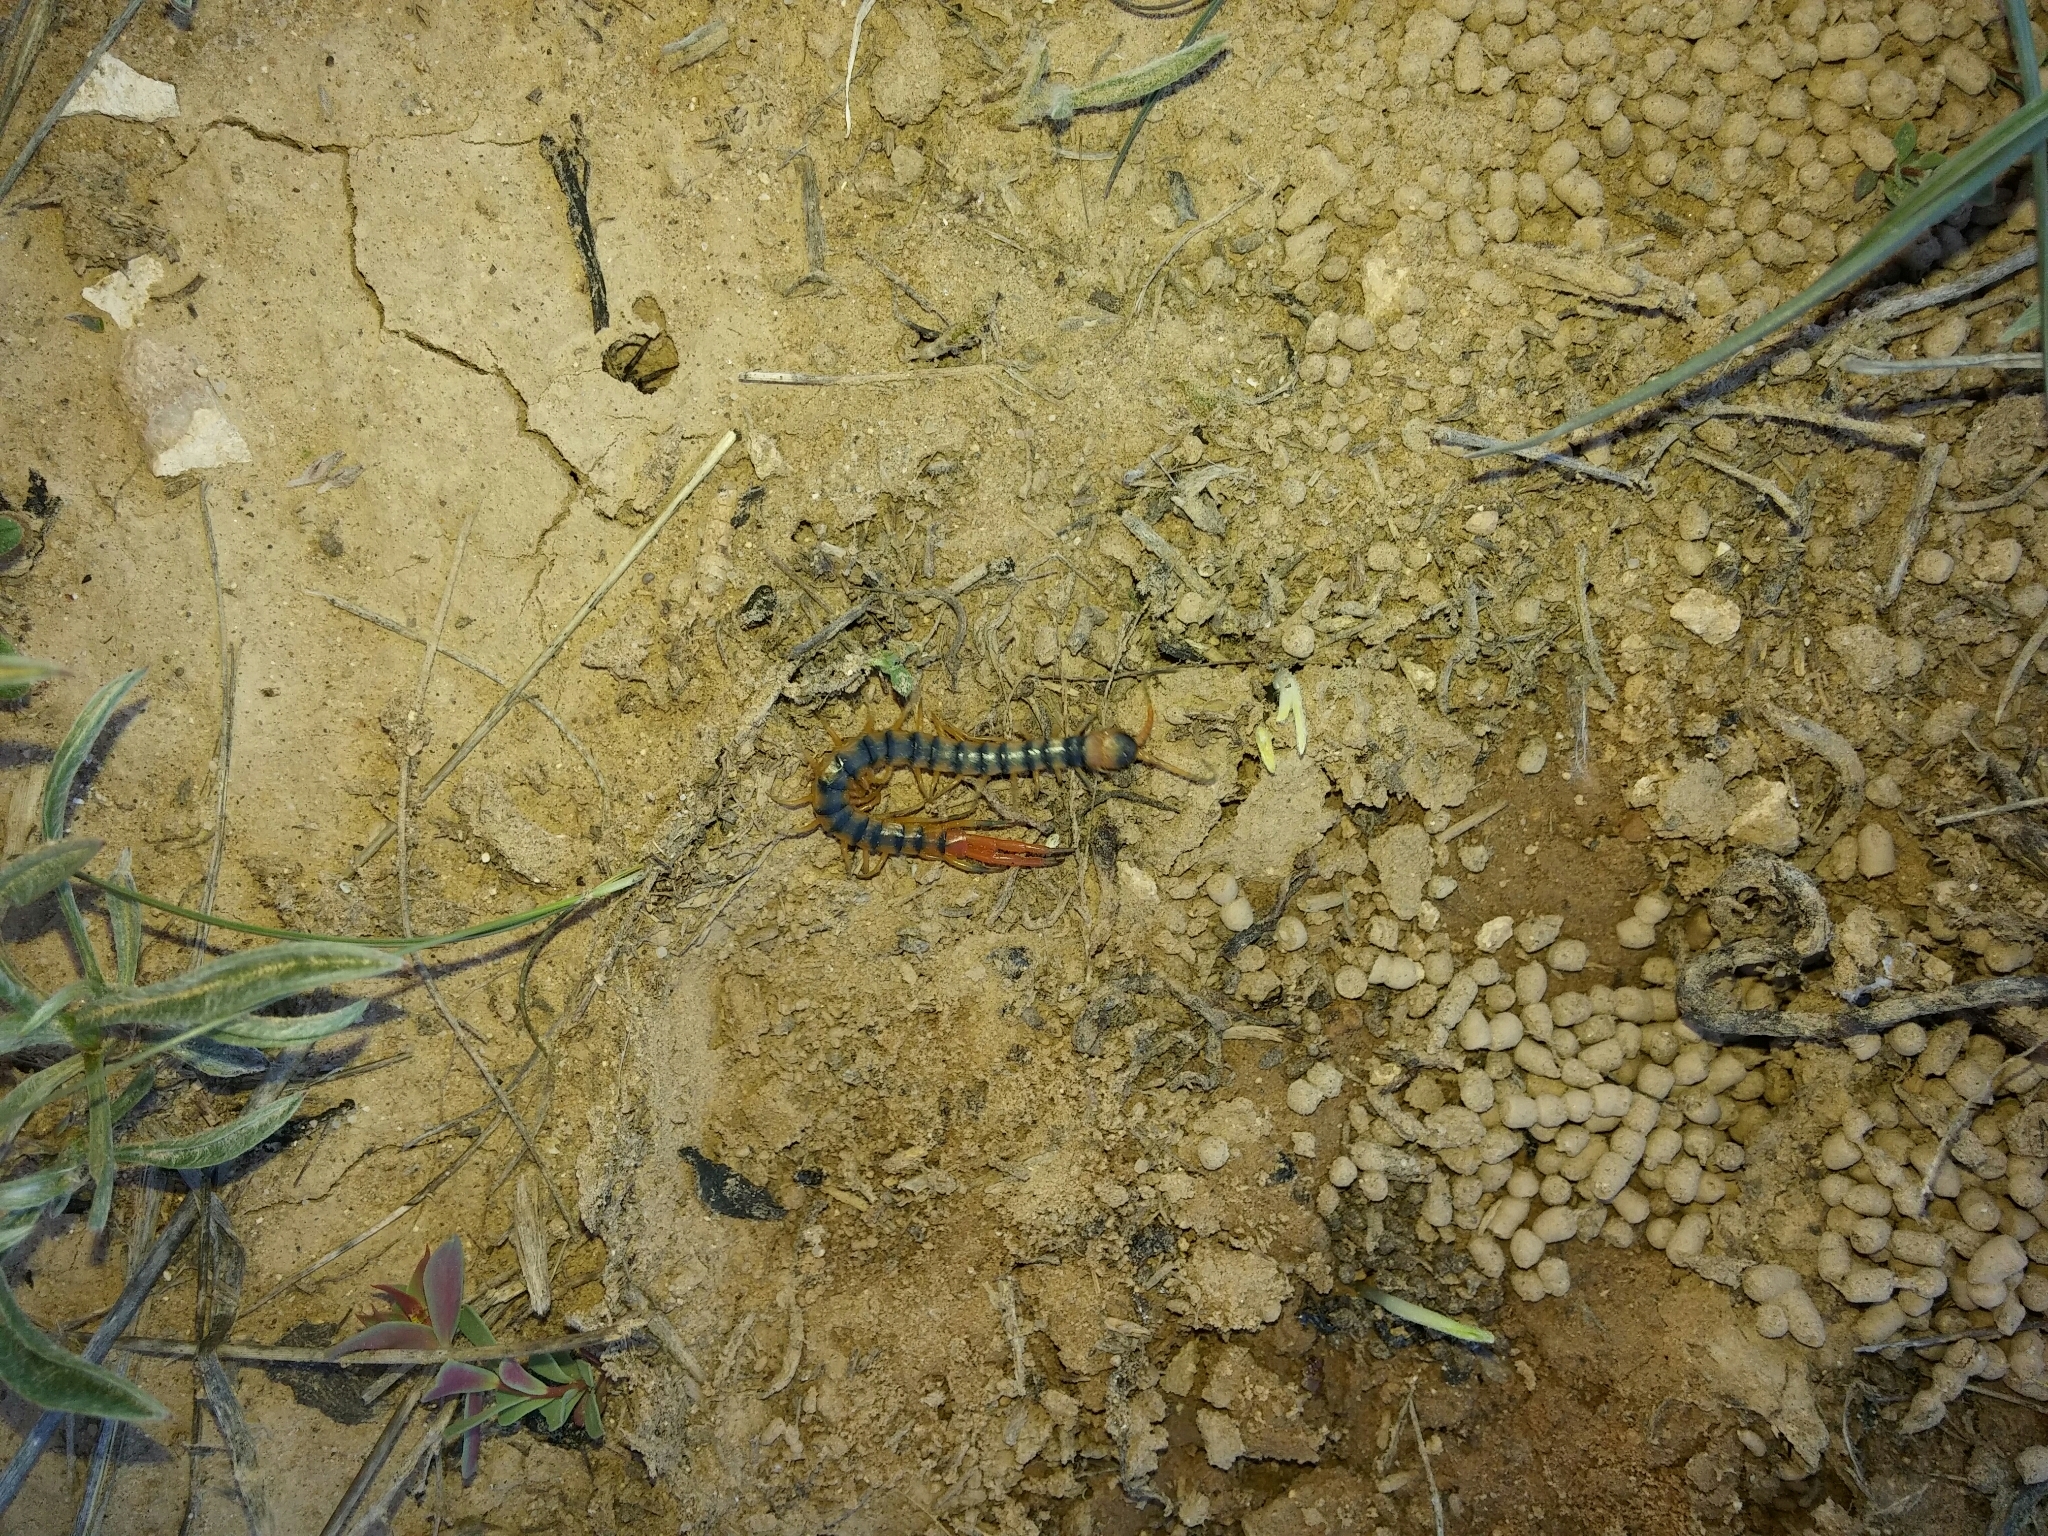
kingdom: Animalia
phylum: Arthropoda
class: Chilopoda
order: Scolopendromorpha
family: Scolopendridae
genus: Scolopendra
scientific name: Scolopendra cingulata
